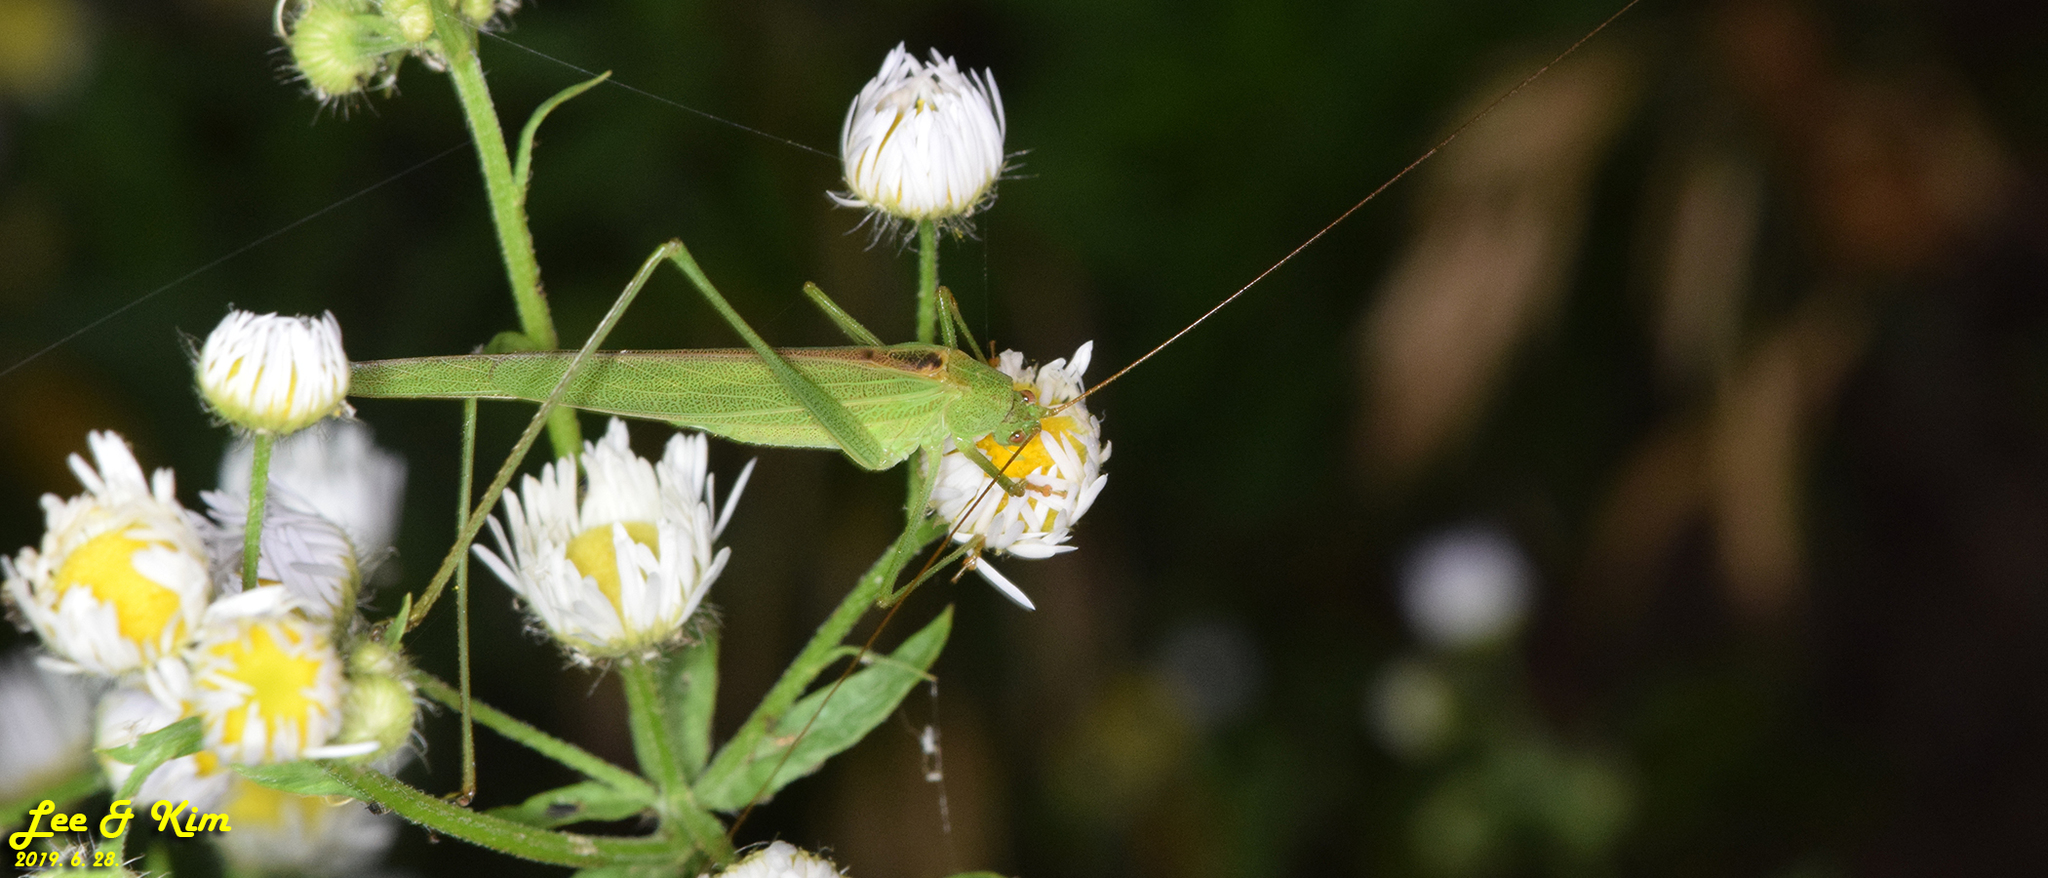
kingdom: Animalia
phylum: Arthropoda
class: Insecta
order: Orthoptera
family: Tettigoniidae
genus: Phaneroptera
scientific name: Phaneroptera falcata
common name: Sickle-bearing bush-cricket
